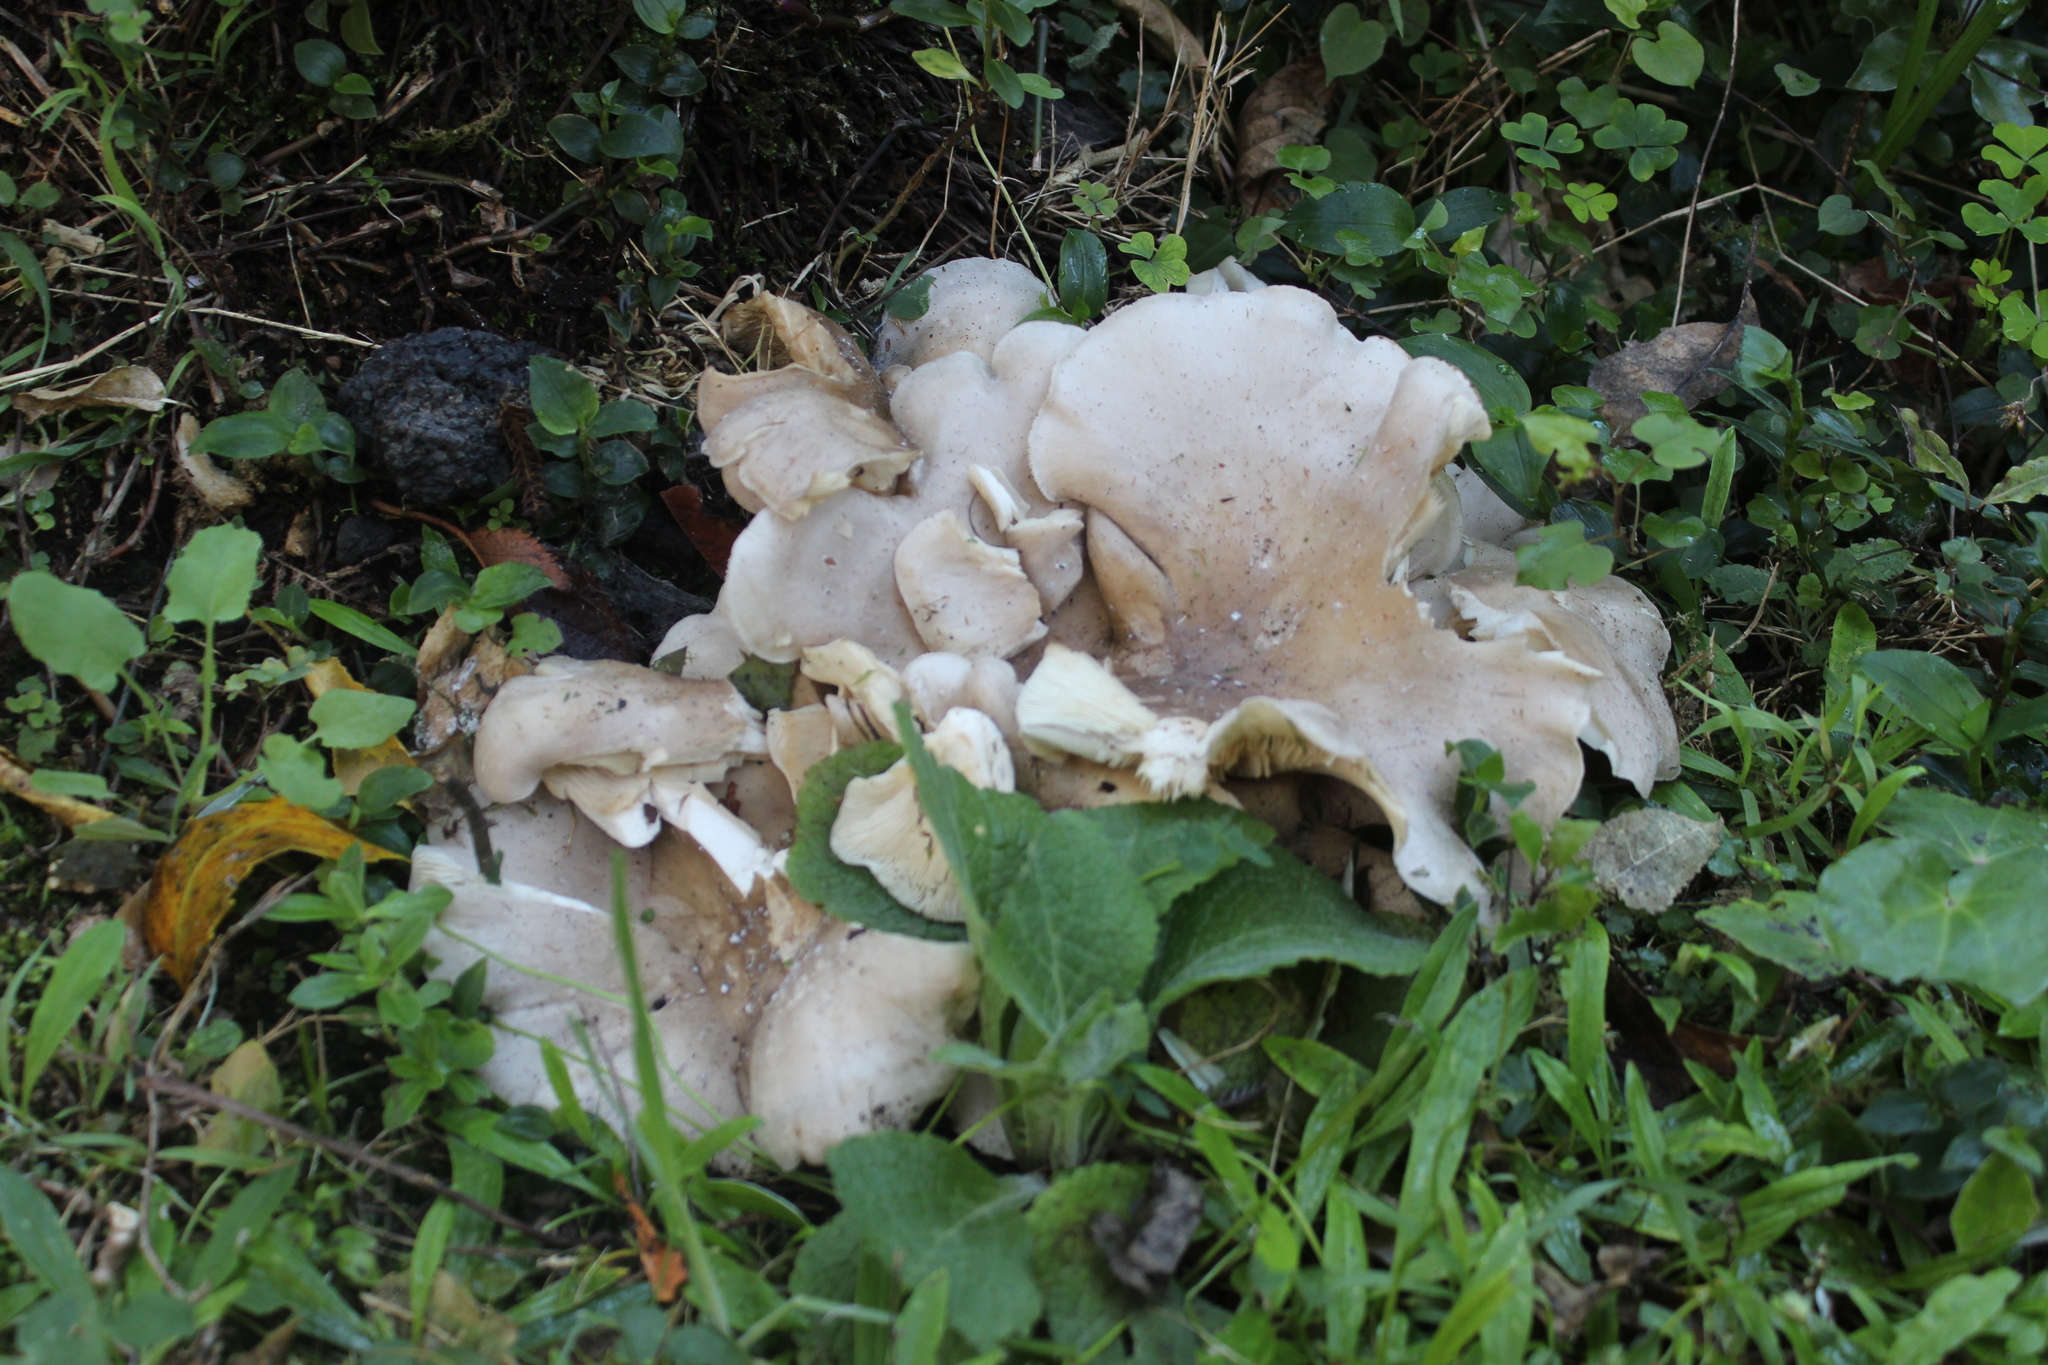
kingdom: Fungi
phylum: Basidiomycota
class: Agaricomycetes
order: Agaricales
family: Tricholomataceae
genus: Clitocybe
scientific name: Clitocybe nebularis
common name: Clouded agaric
